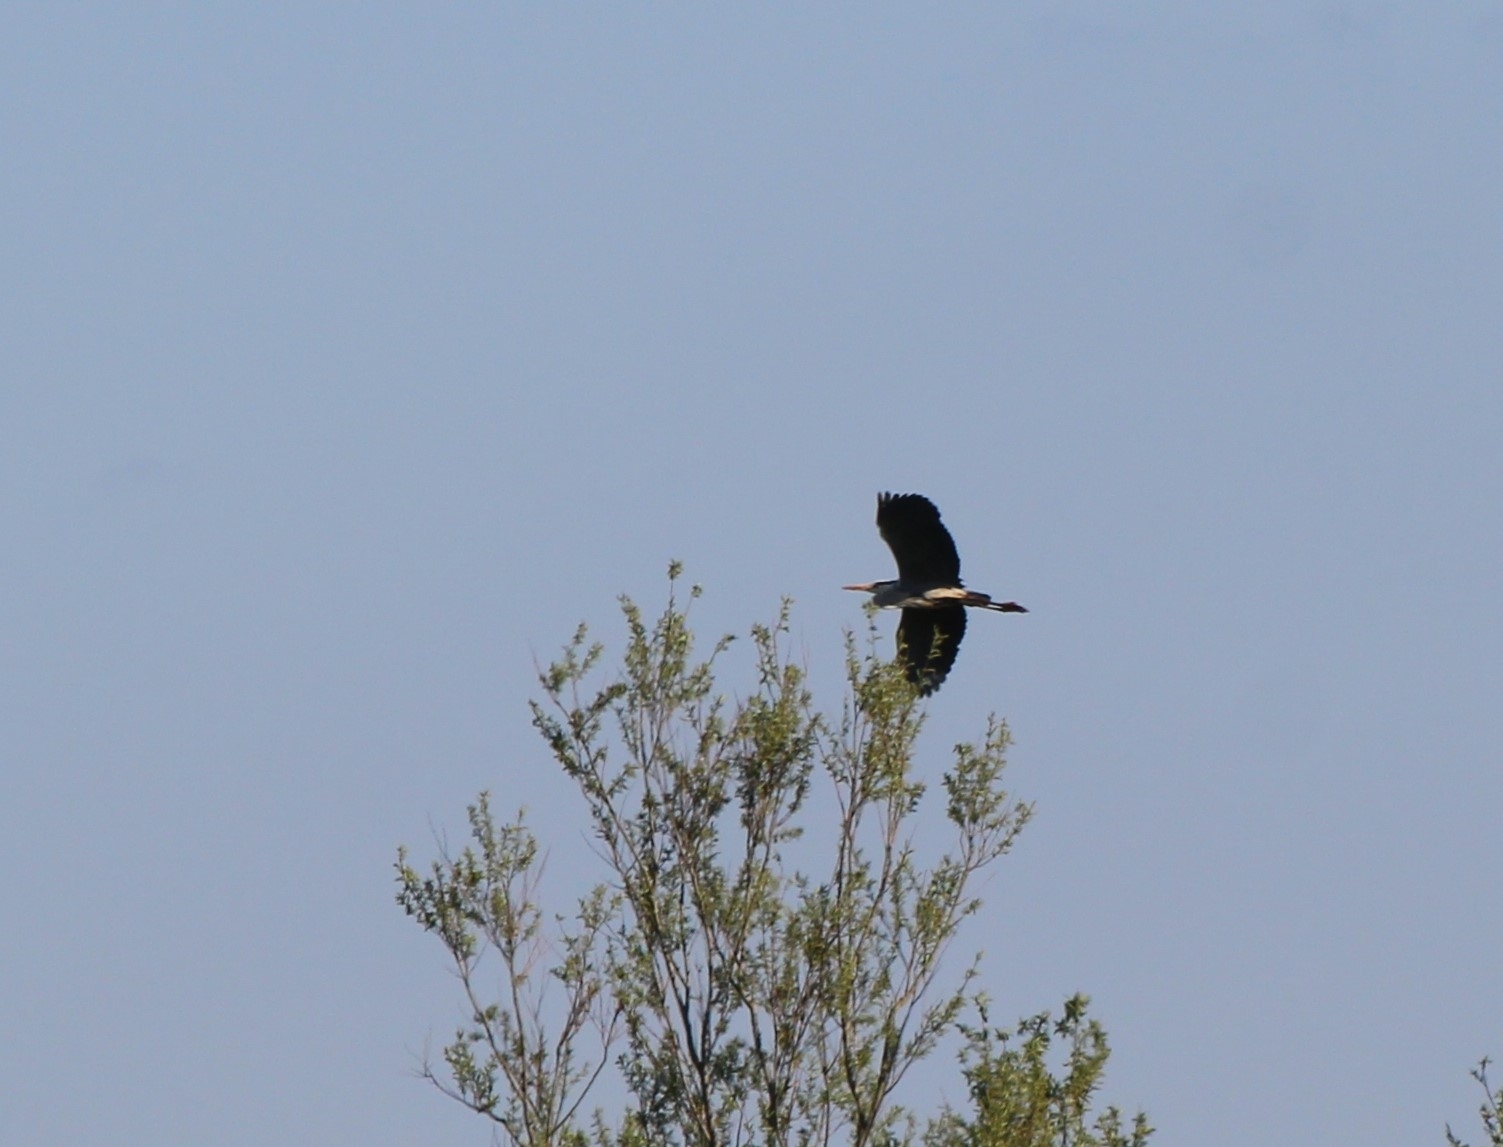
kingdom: Animalia
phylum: Chordata
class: Aves
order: Pelecaniformes
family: Ardeidae
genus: Ardea
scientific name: Ardea cinerea
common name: Grey heron
